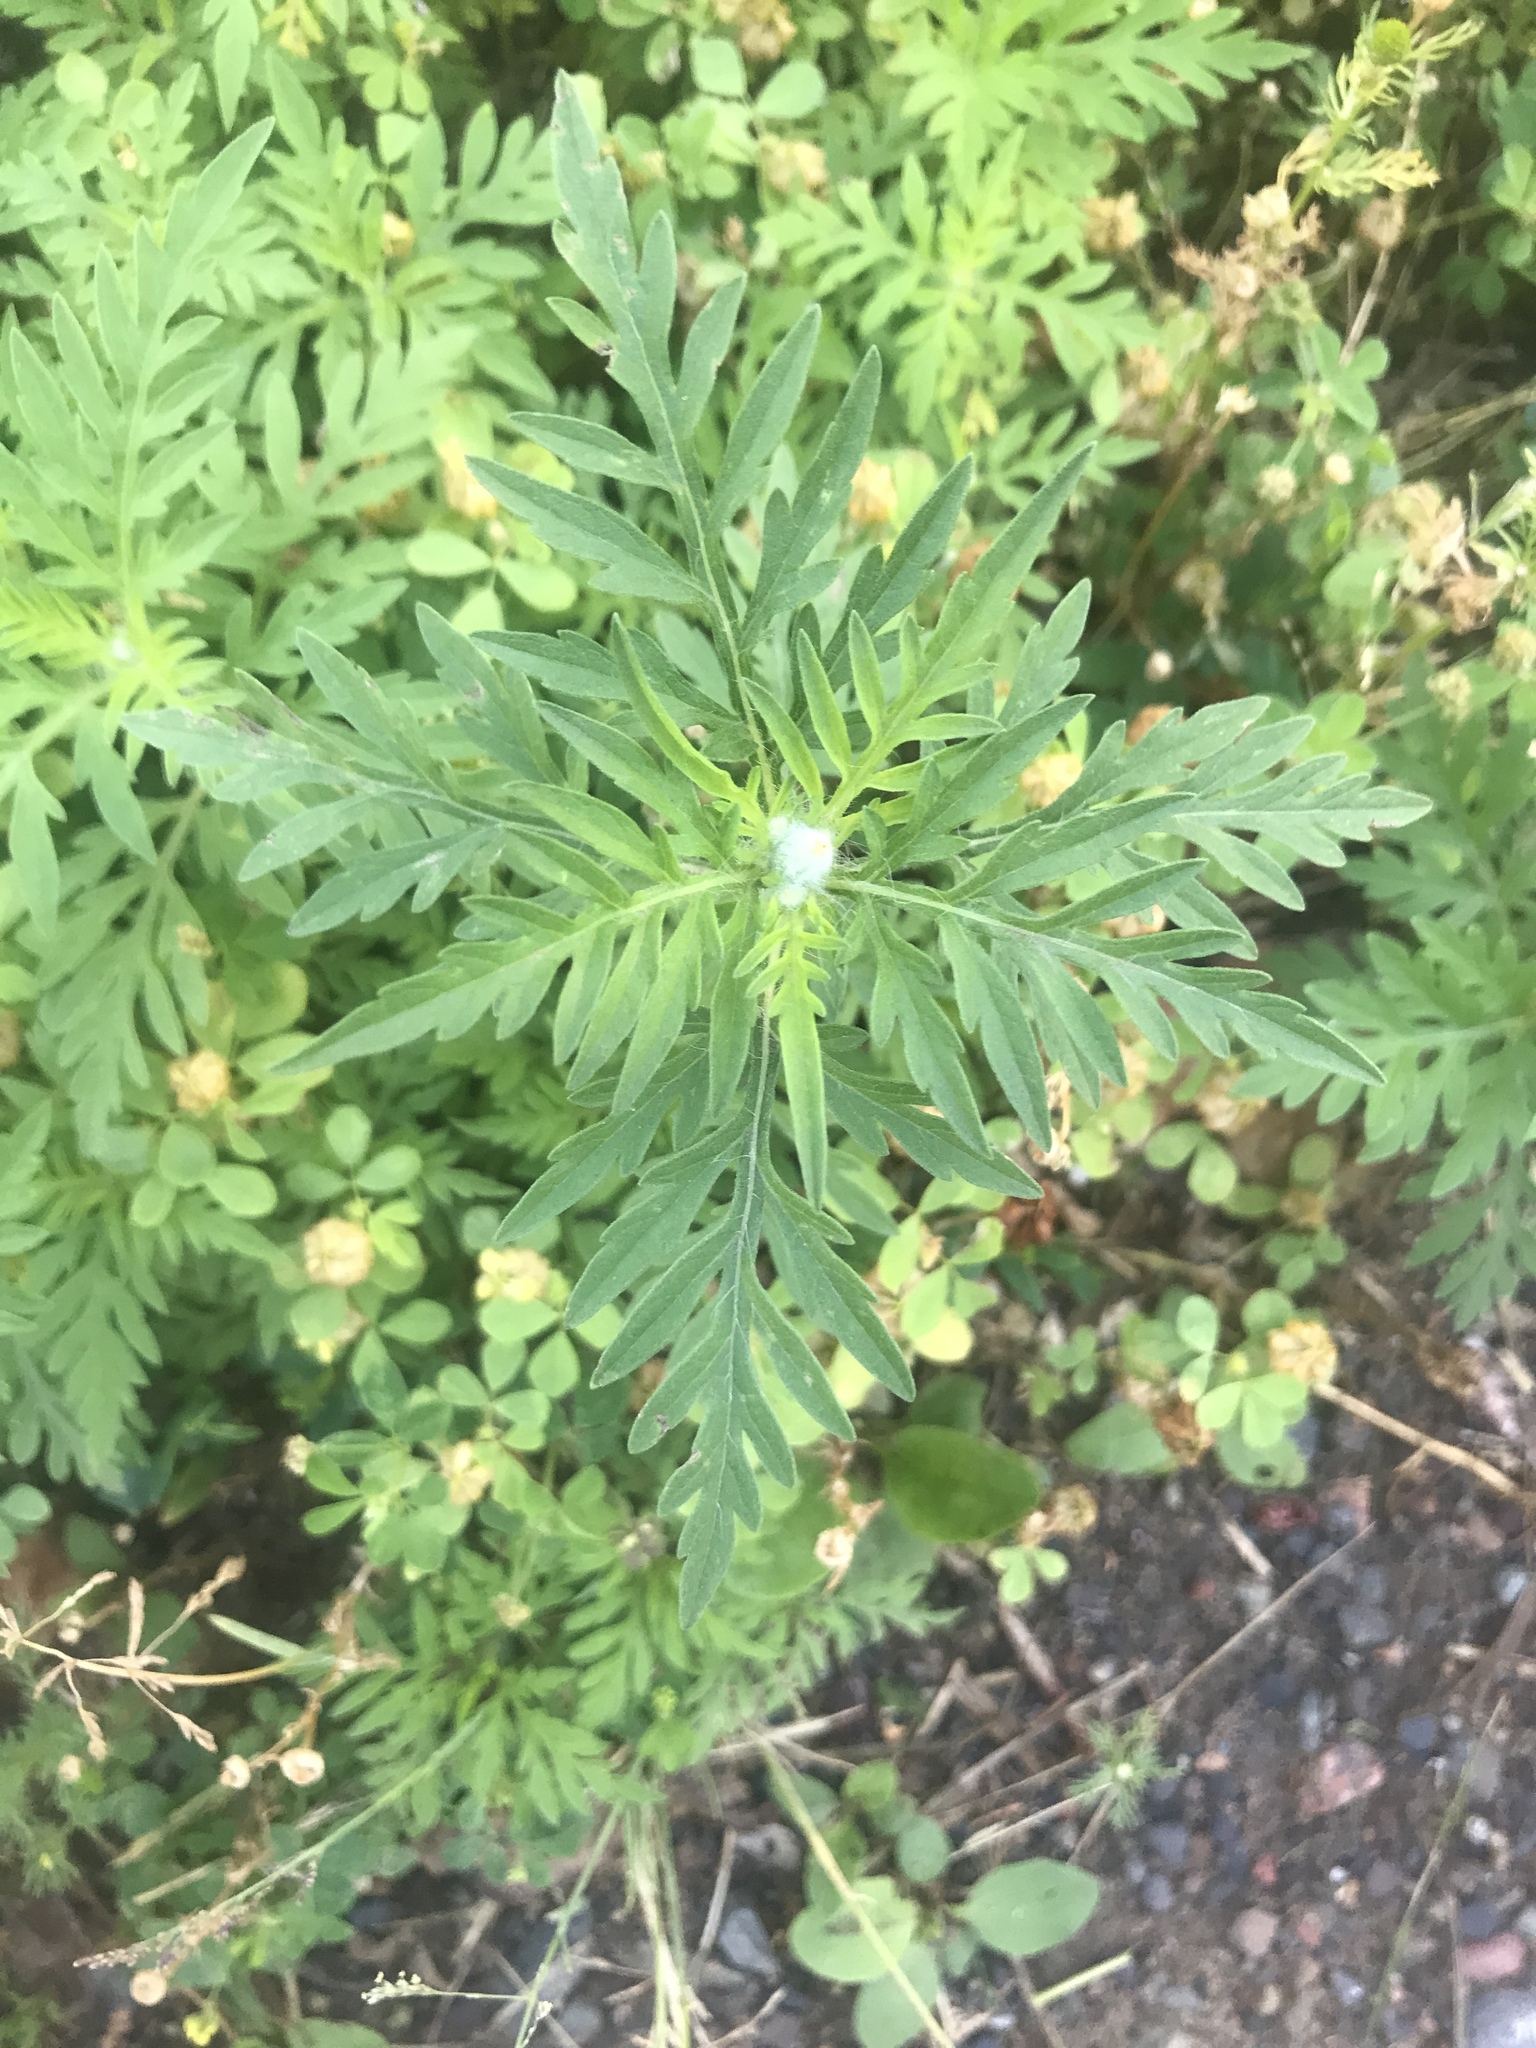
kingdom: Plantae
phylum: Tracheophyta
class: Magnoliopsida
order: Asterales
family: Asteraceae
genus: Ambrosia
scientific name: Ambrosia artemisiifolia
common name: Annual ragweed
